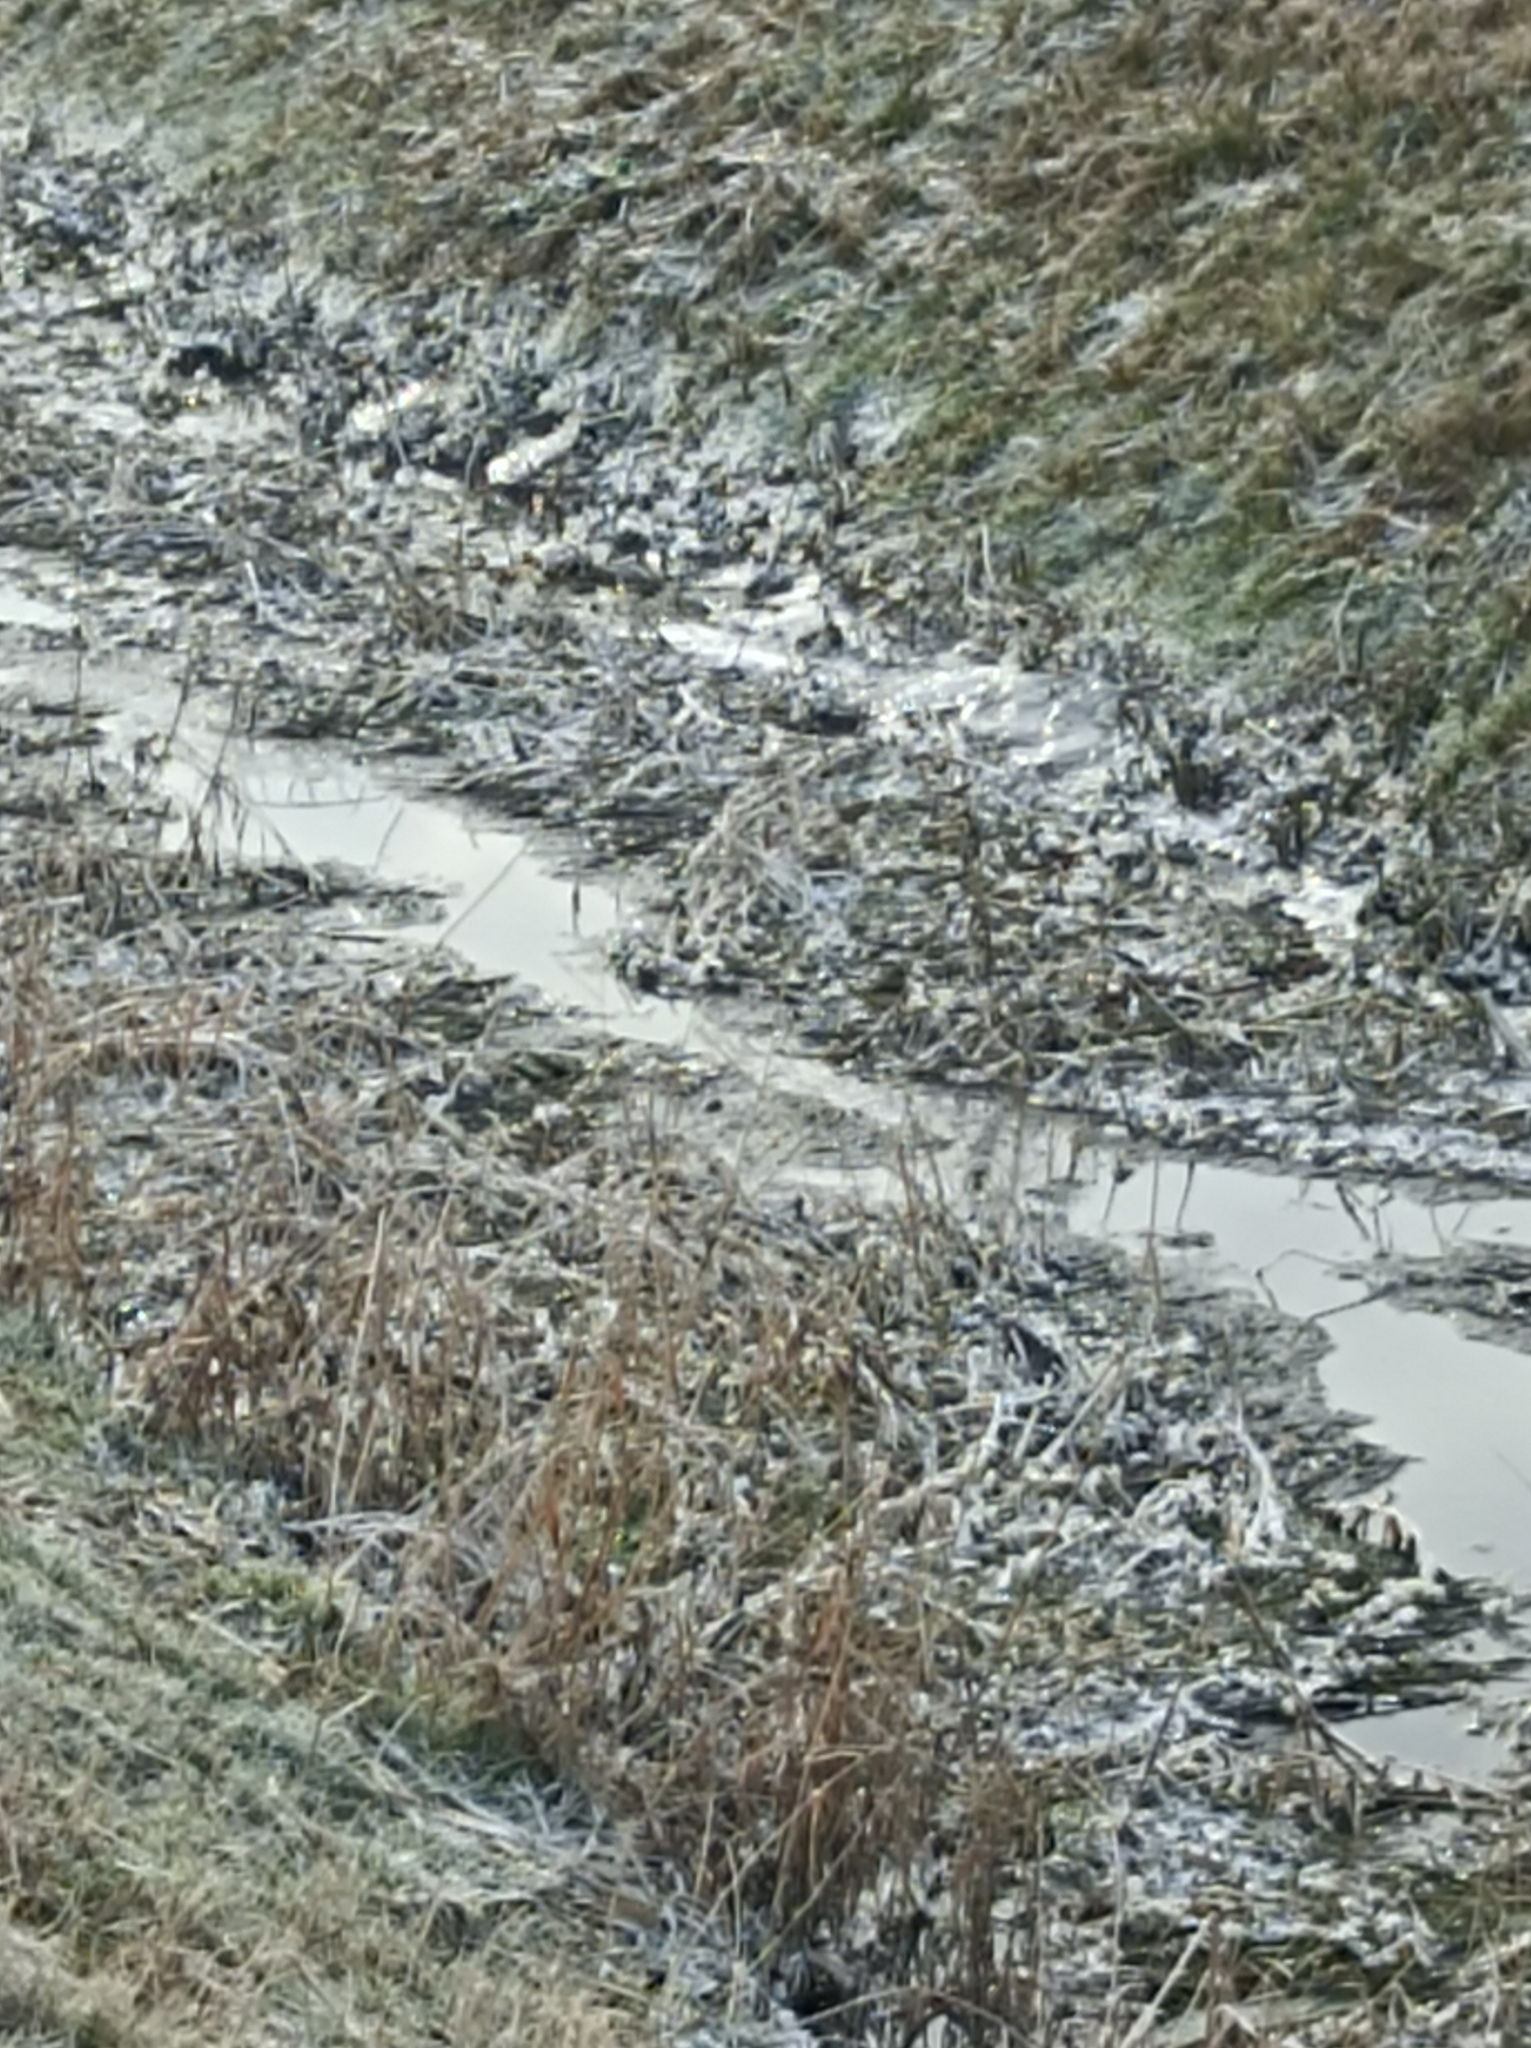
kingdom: Animalia
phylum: Chordata
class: Aves
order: Passeriformes
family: Motacillidae
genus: Motacilla
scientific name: Motacilla cinerea
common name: Grey wagtail
